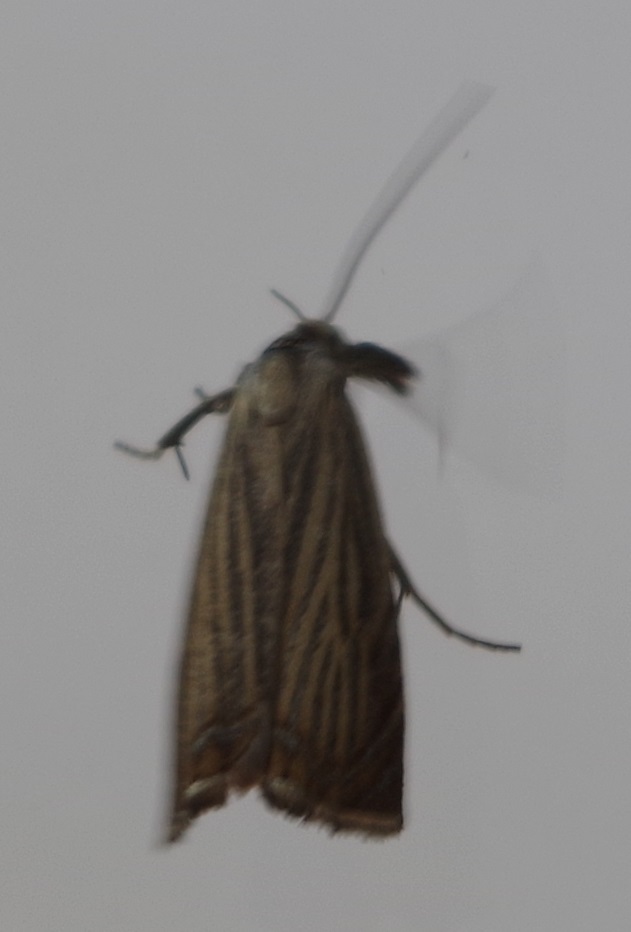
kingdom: Animalia
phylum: Arthropoda
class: Insecta
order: Lepidoptera
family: Crambidae
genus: Chrysoteuchia
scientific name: Chrysoteuchia culmella
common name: Garden grass-veneer
